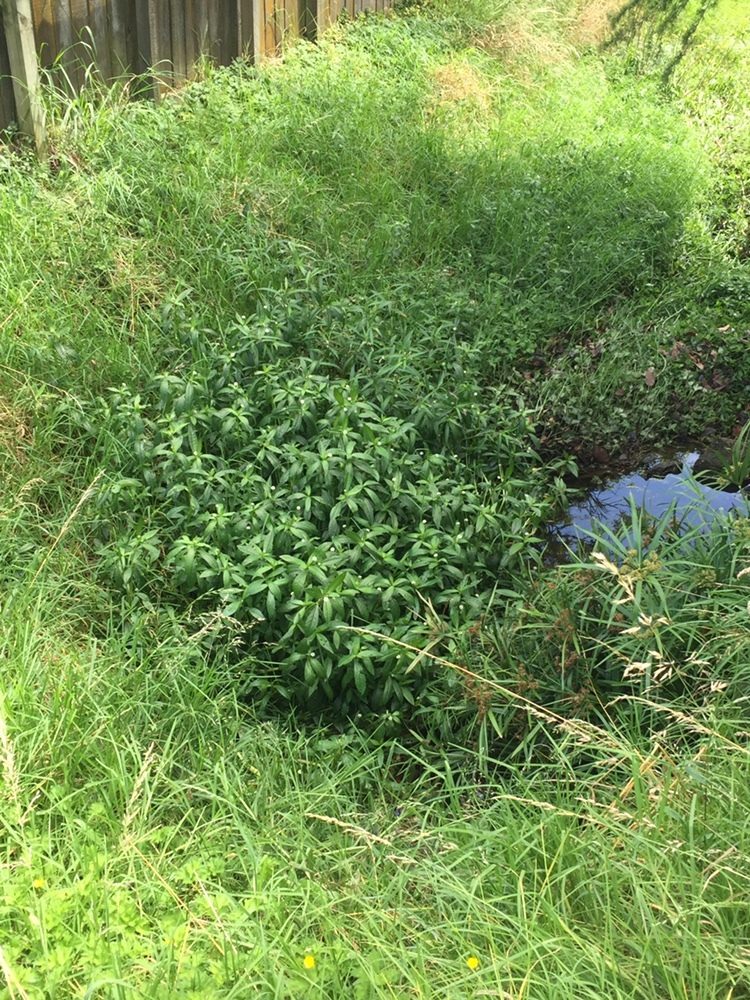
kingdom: Plantae
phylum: Tracheophyta
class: Magnoliopsida
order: Caryophyllales
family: Amaranthaceae
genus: Alternanthera
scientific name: Alternanthera philoxeroides
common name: Alligatorweed
